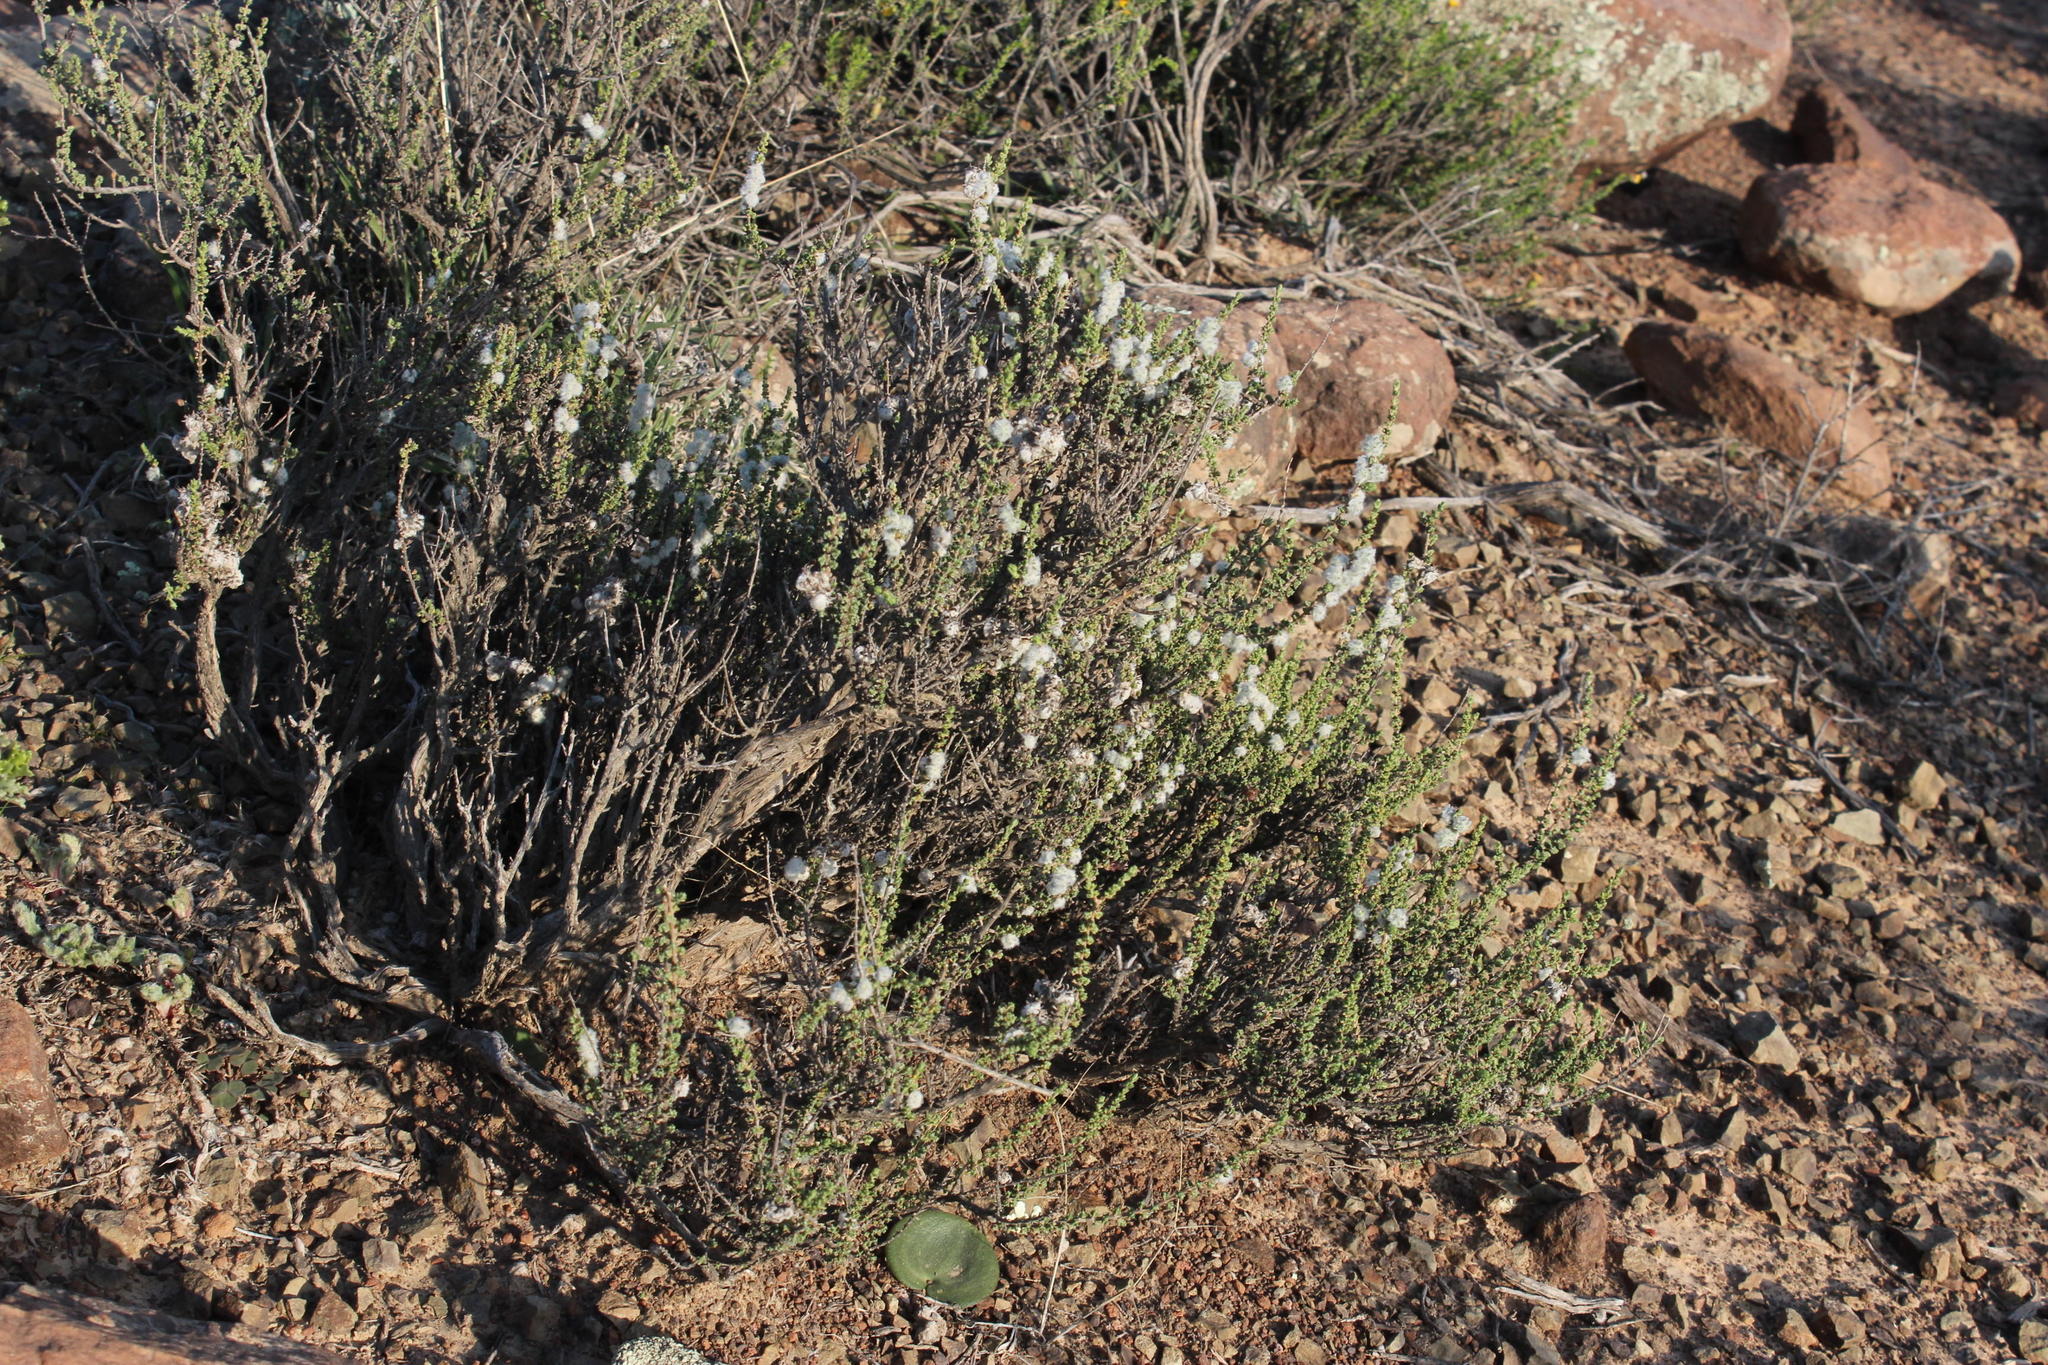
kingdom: Plantae
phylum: Tracheophyta
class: Magnoliopsida
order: Asterales
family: Asteraceae
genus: Eriocephalus
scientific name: Eriocephalus ericoides
